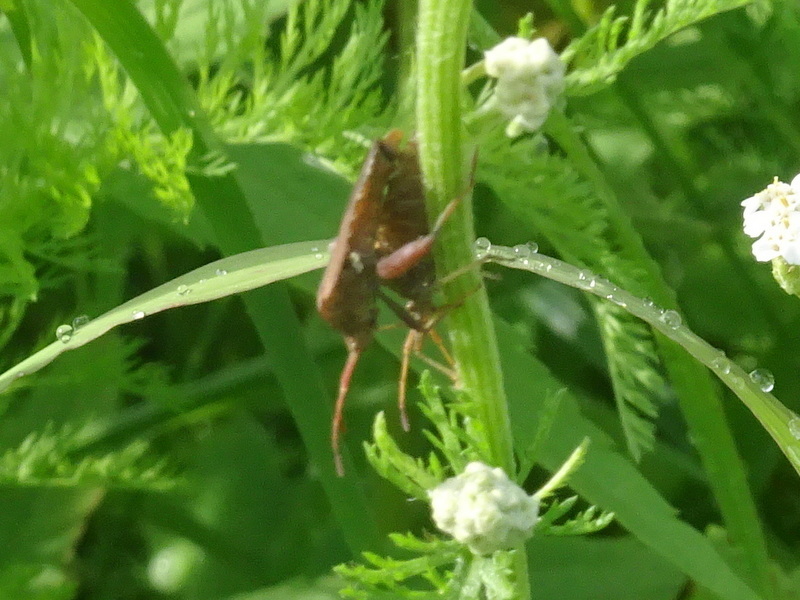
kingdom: Animalia
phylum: Arthropoda
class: Insecta
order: Hemiptera
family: Coreidae
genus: Euthochtha
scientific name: Euthochtha galeator
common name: Helmeted squash bug
